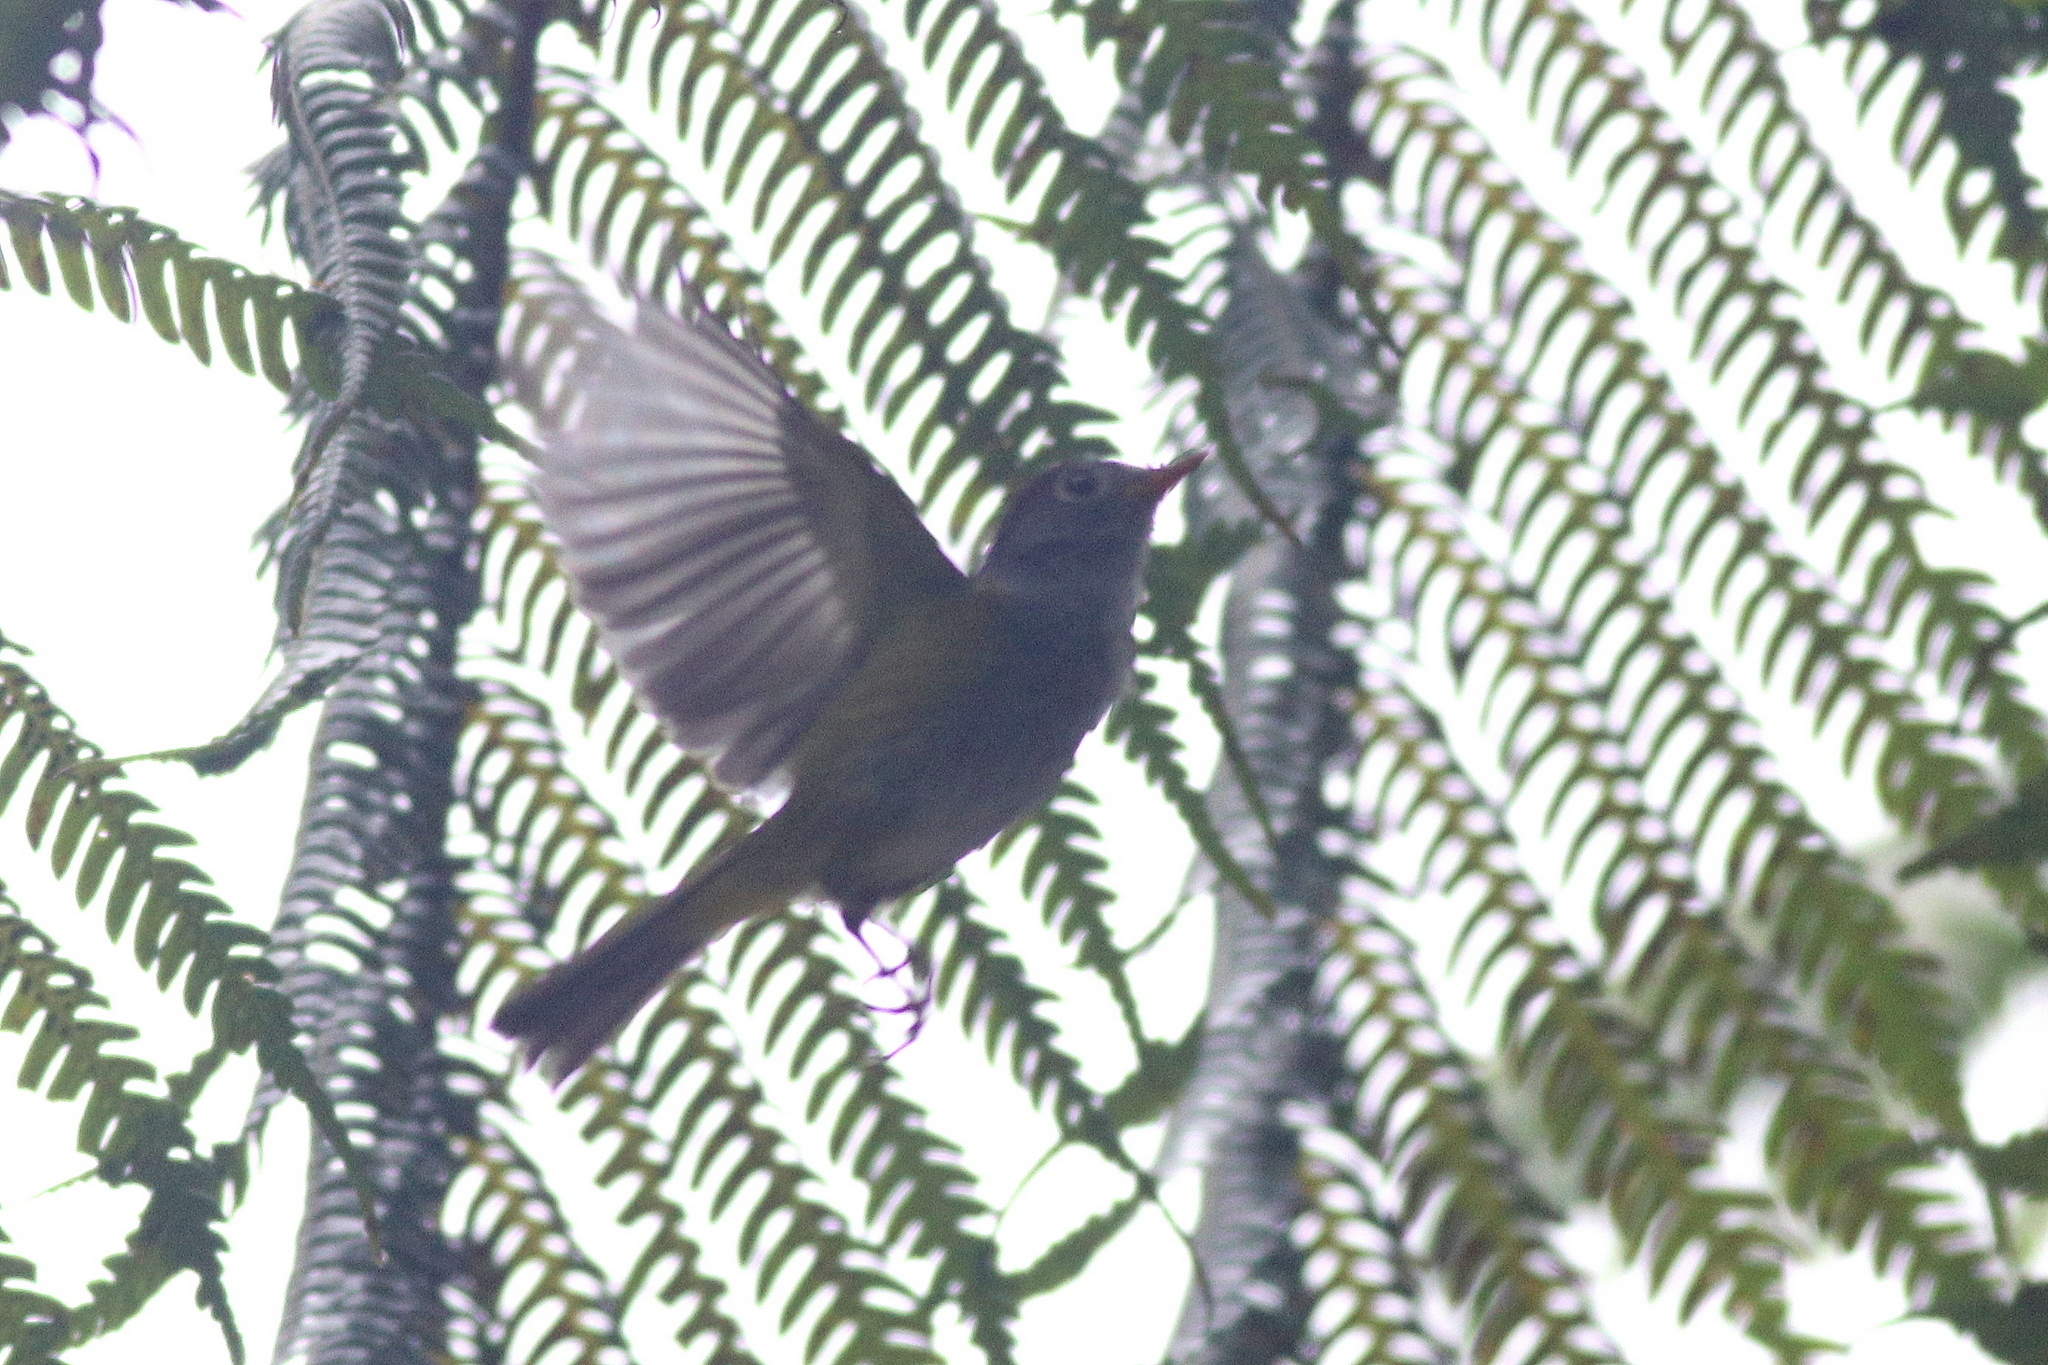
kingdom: Animalia
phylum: Chordata
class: Aves
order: Passeriformes
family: Phylloscopidae
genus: Seicercus
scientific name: Seicercus castaniceps
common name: Chestnut-crowned warbler
